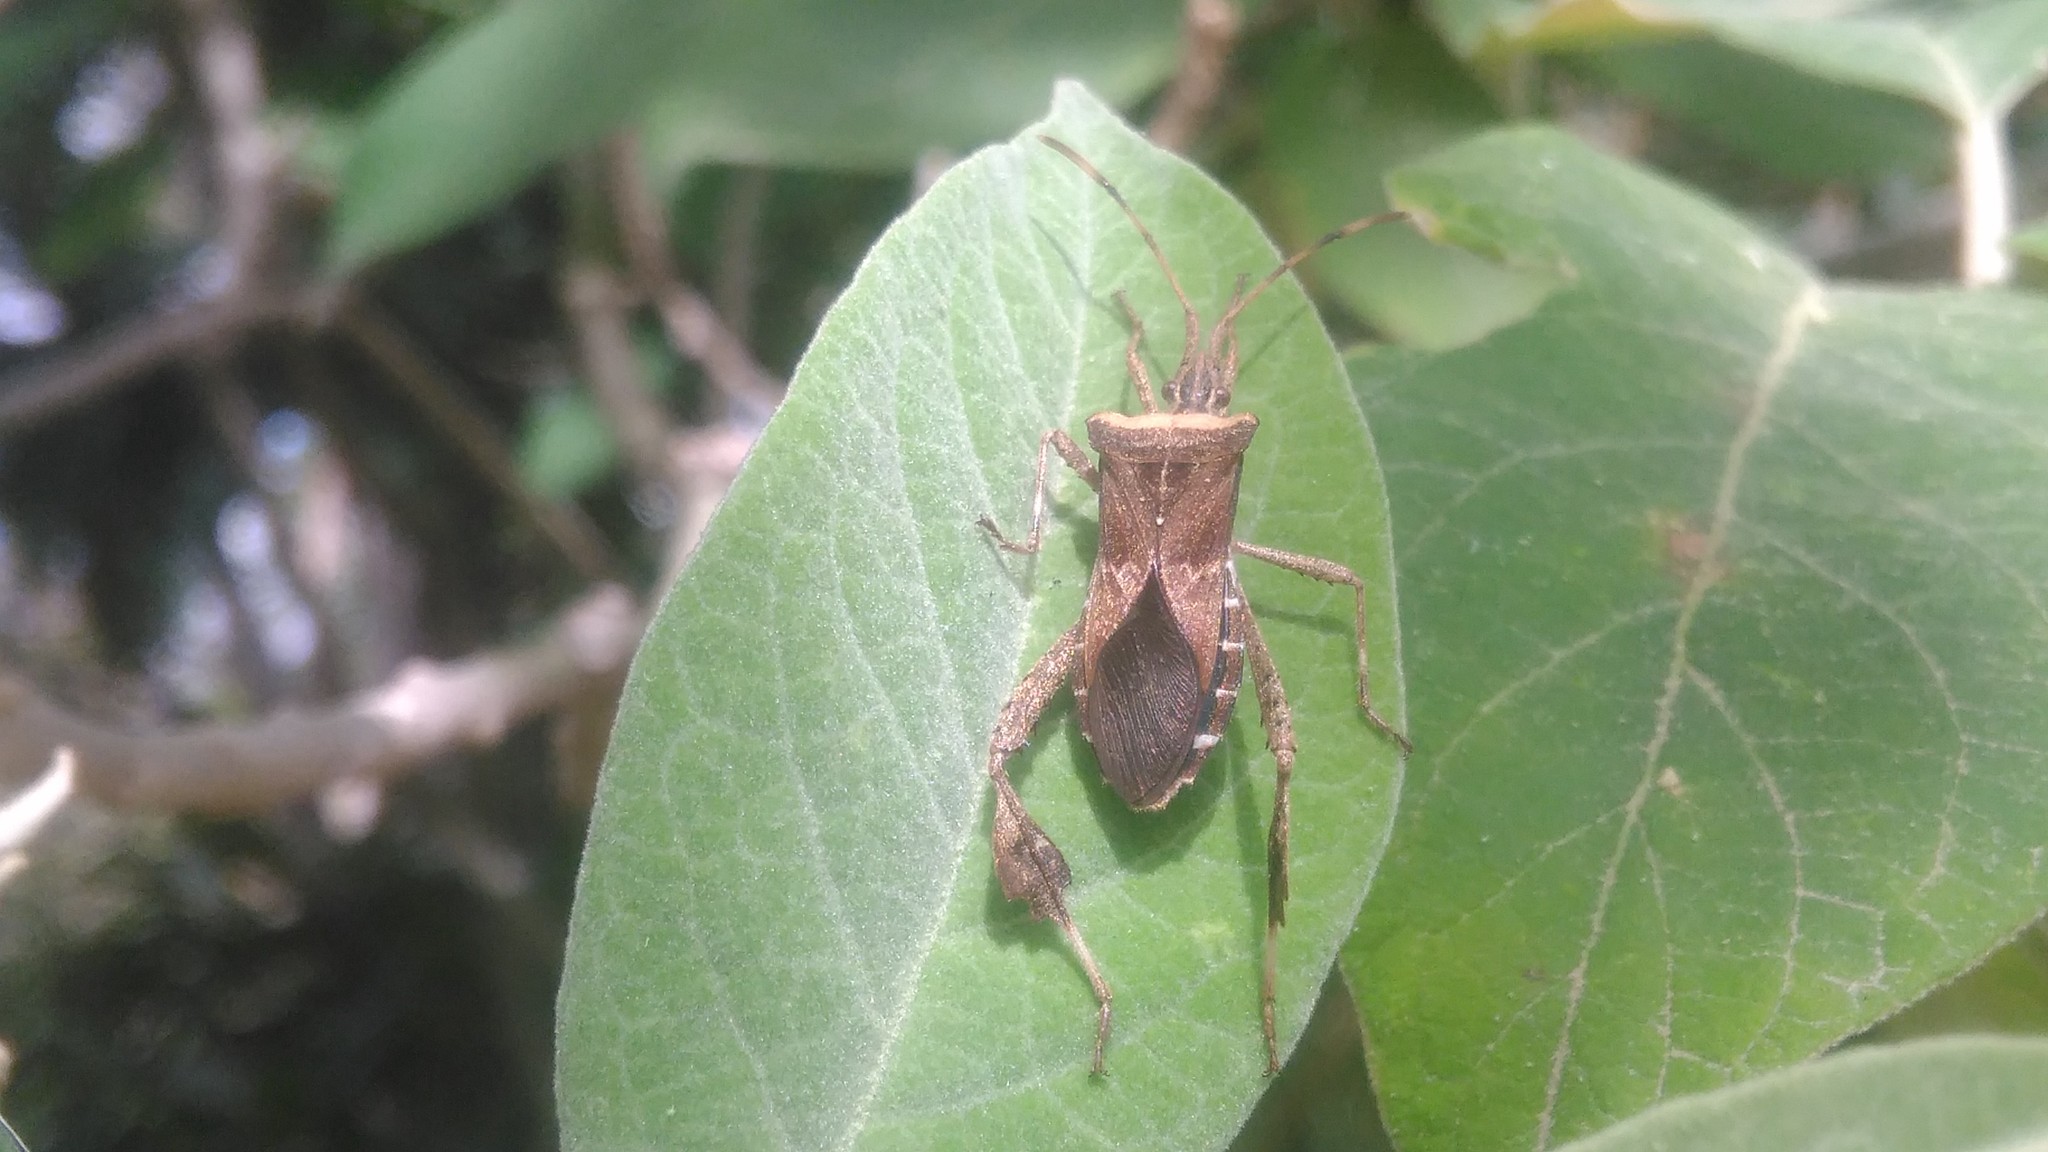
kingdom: Animalia
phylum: Arthropoda
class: Insecta
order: Hemiptera
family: Coreidae
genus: Leptoglossus
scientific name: Leptoglossus concaviusculus
